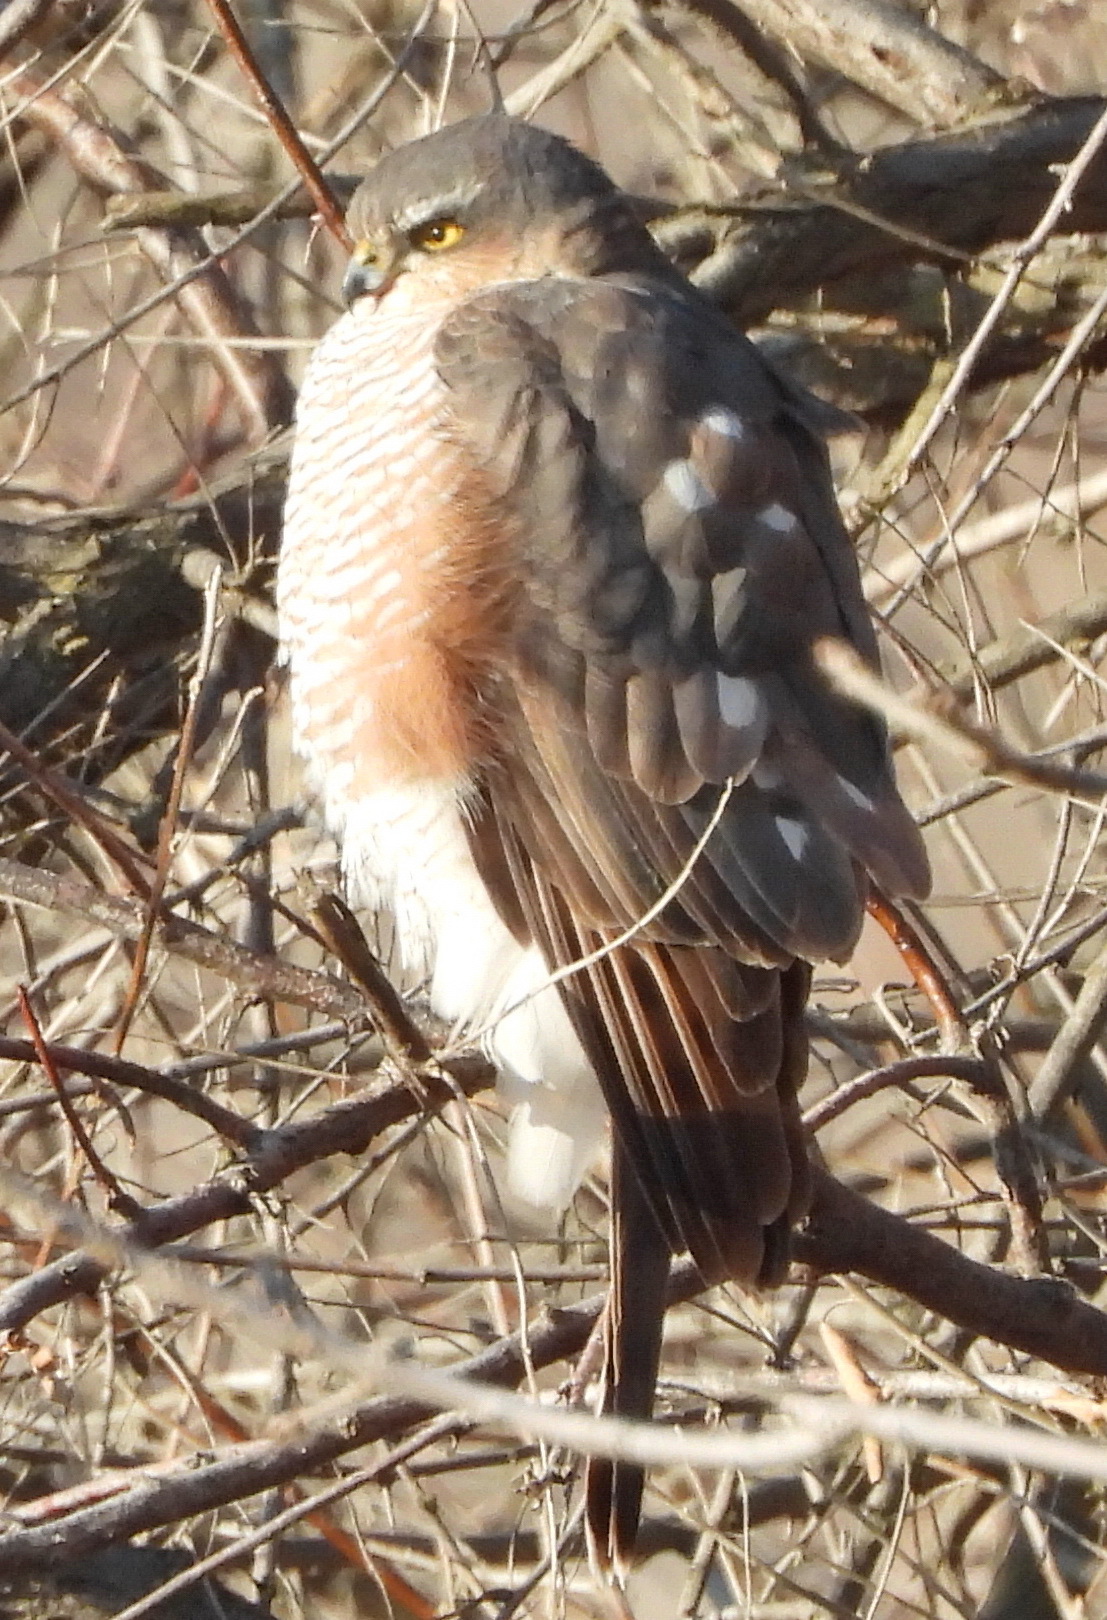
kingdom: Animalia
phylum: Chordata
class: Aves
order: Accipitriformes
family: Accipitridae
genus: Accipiter
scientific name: Accipiter nisus
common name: Eurasian sparrowhawk
